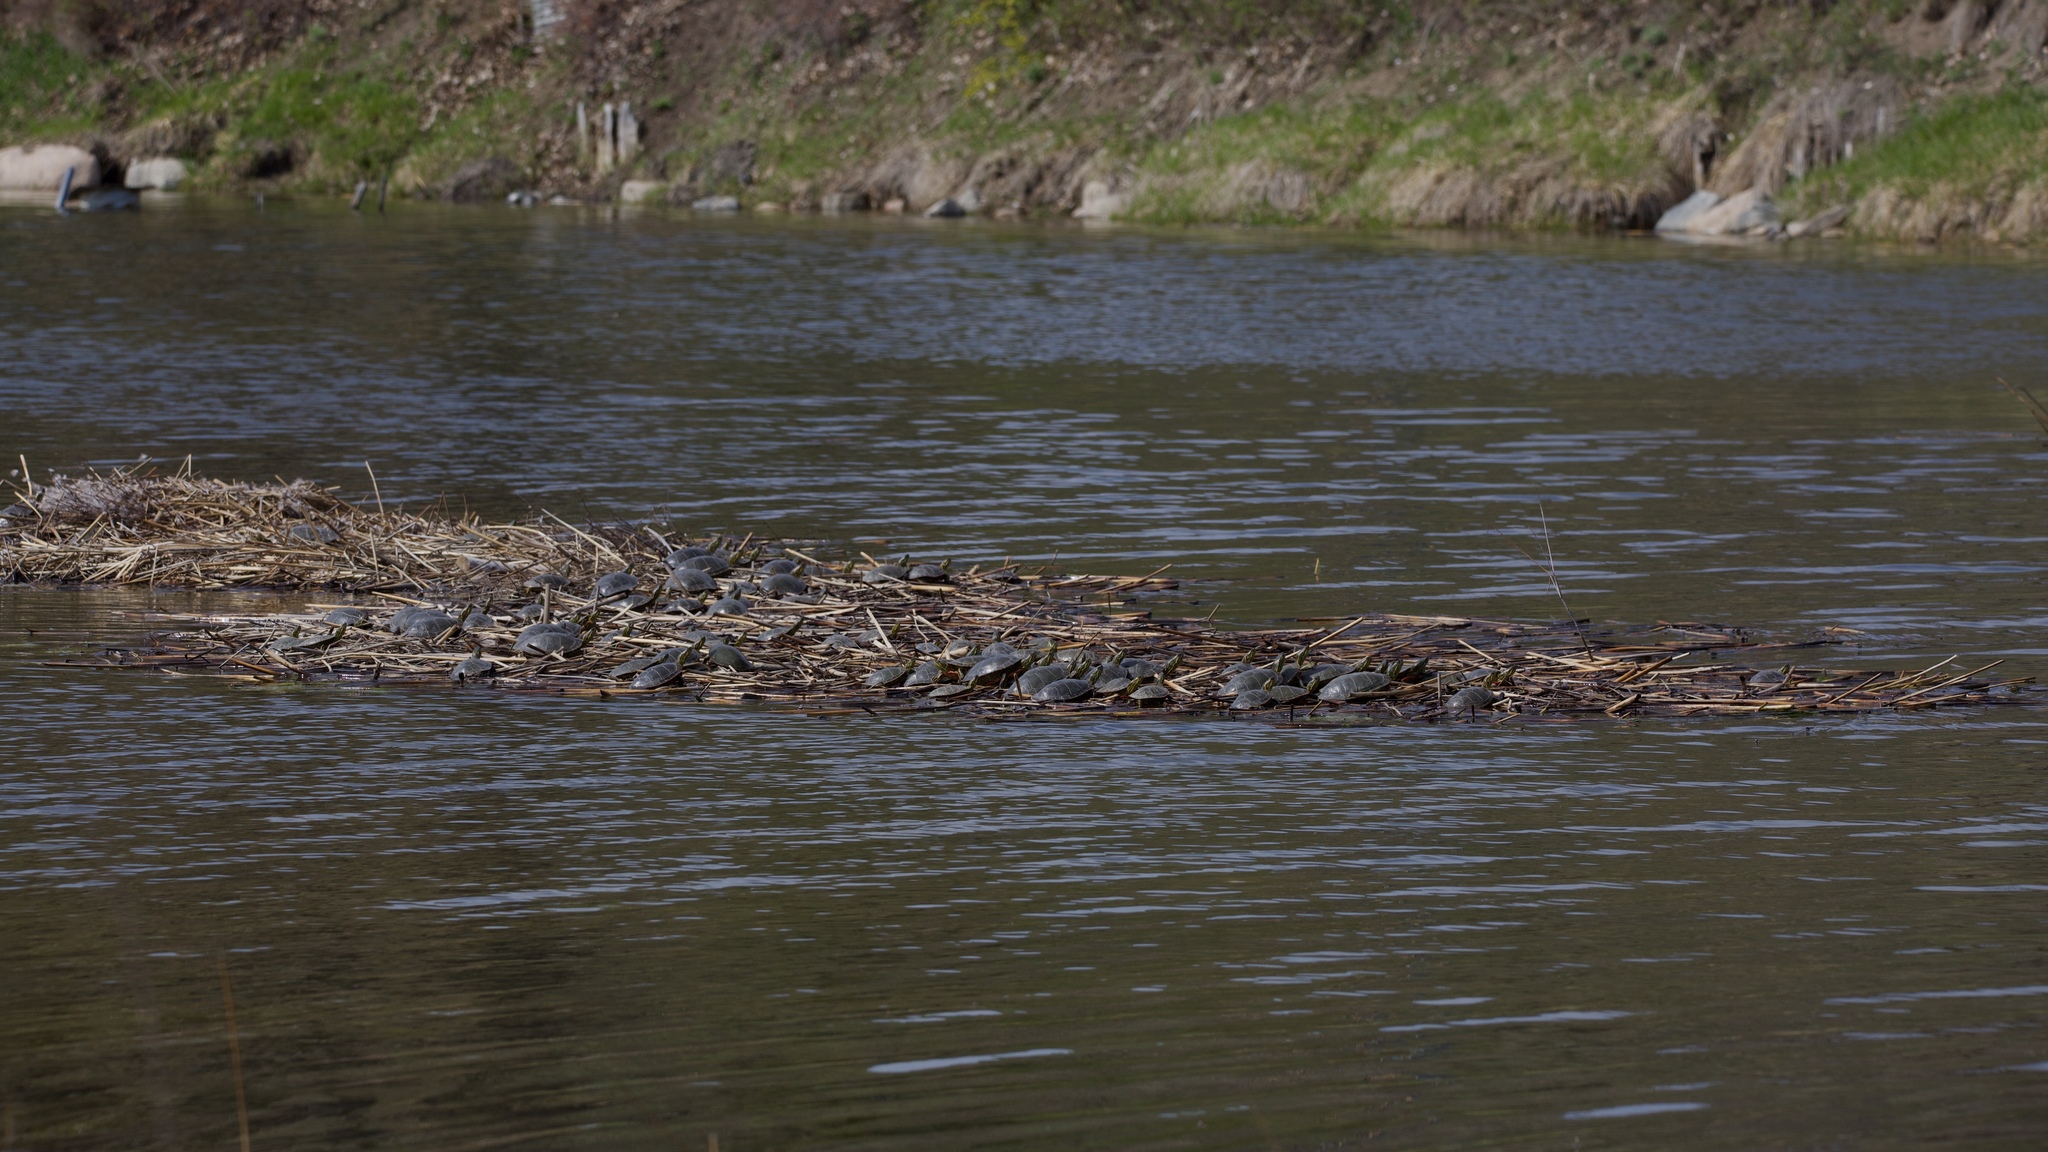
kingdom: Animalia
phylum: Chordata
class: Testudines
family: Emydidae
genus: Chrysemys
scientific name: Chrysemys picta
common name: Painted turtle
